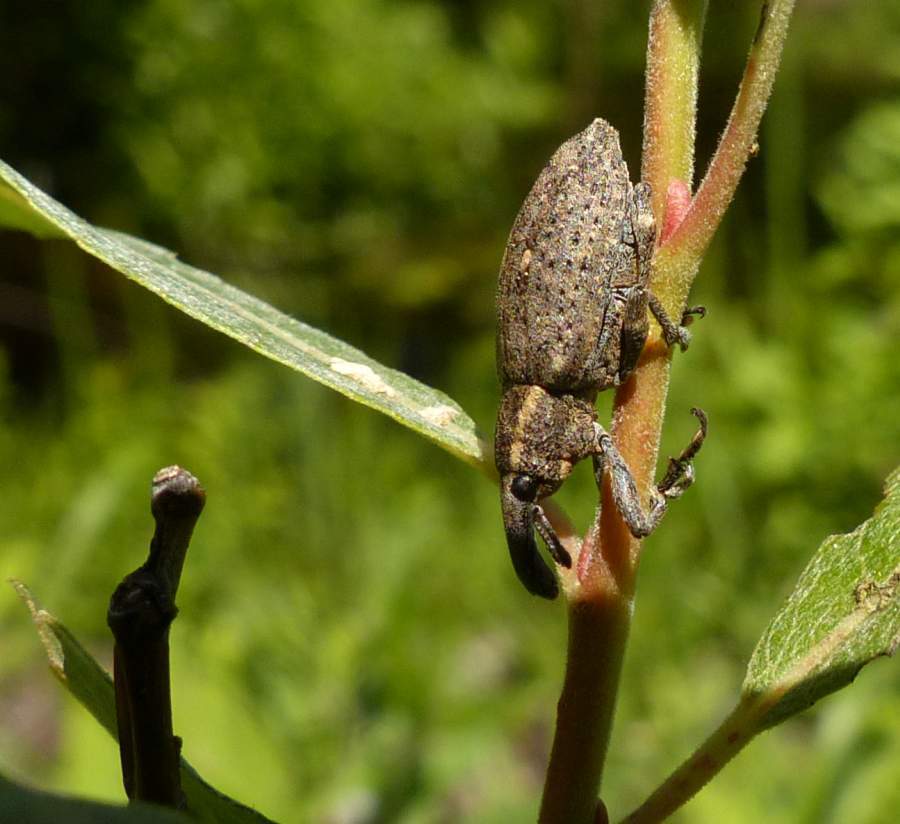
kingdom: Animalia
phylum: Arthropoda
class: Insecta
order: Coleoptera
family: Curculionidae
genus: Lepyrus
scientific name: Lepyrus palustris
